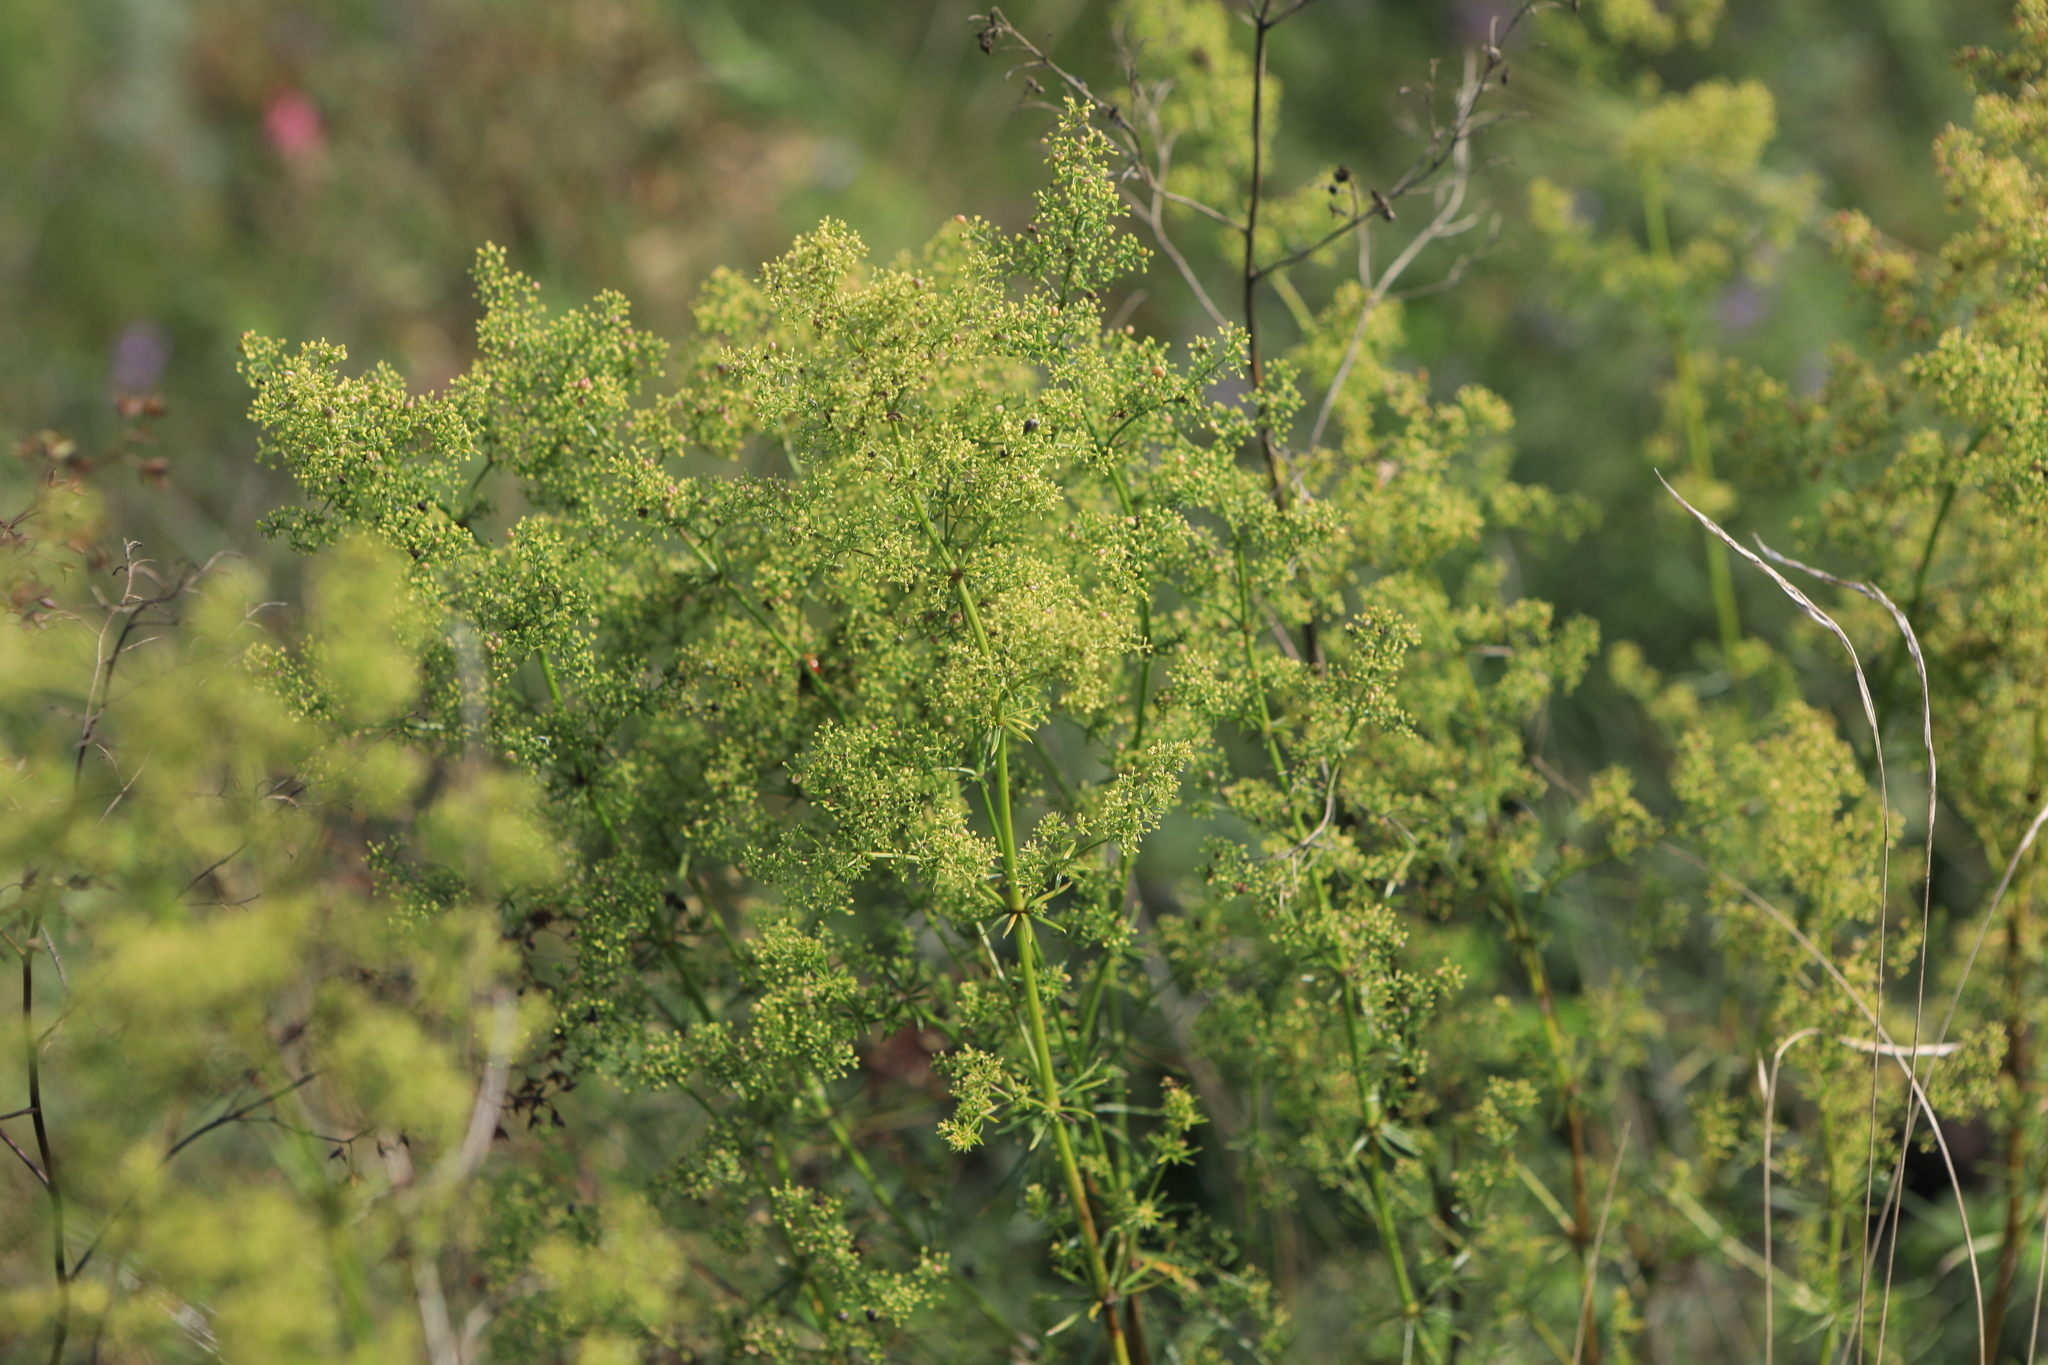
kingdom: Plantae
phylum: Tracheophyta
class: Magnoliopsida
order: Gentianales
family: Rubiaceae
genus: Galium
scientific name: Galium verum
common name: Lady's bedstraw
